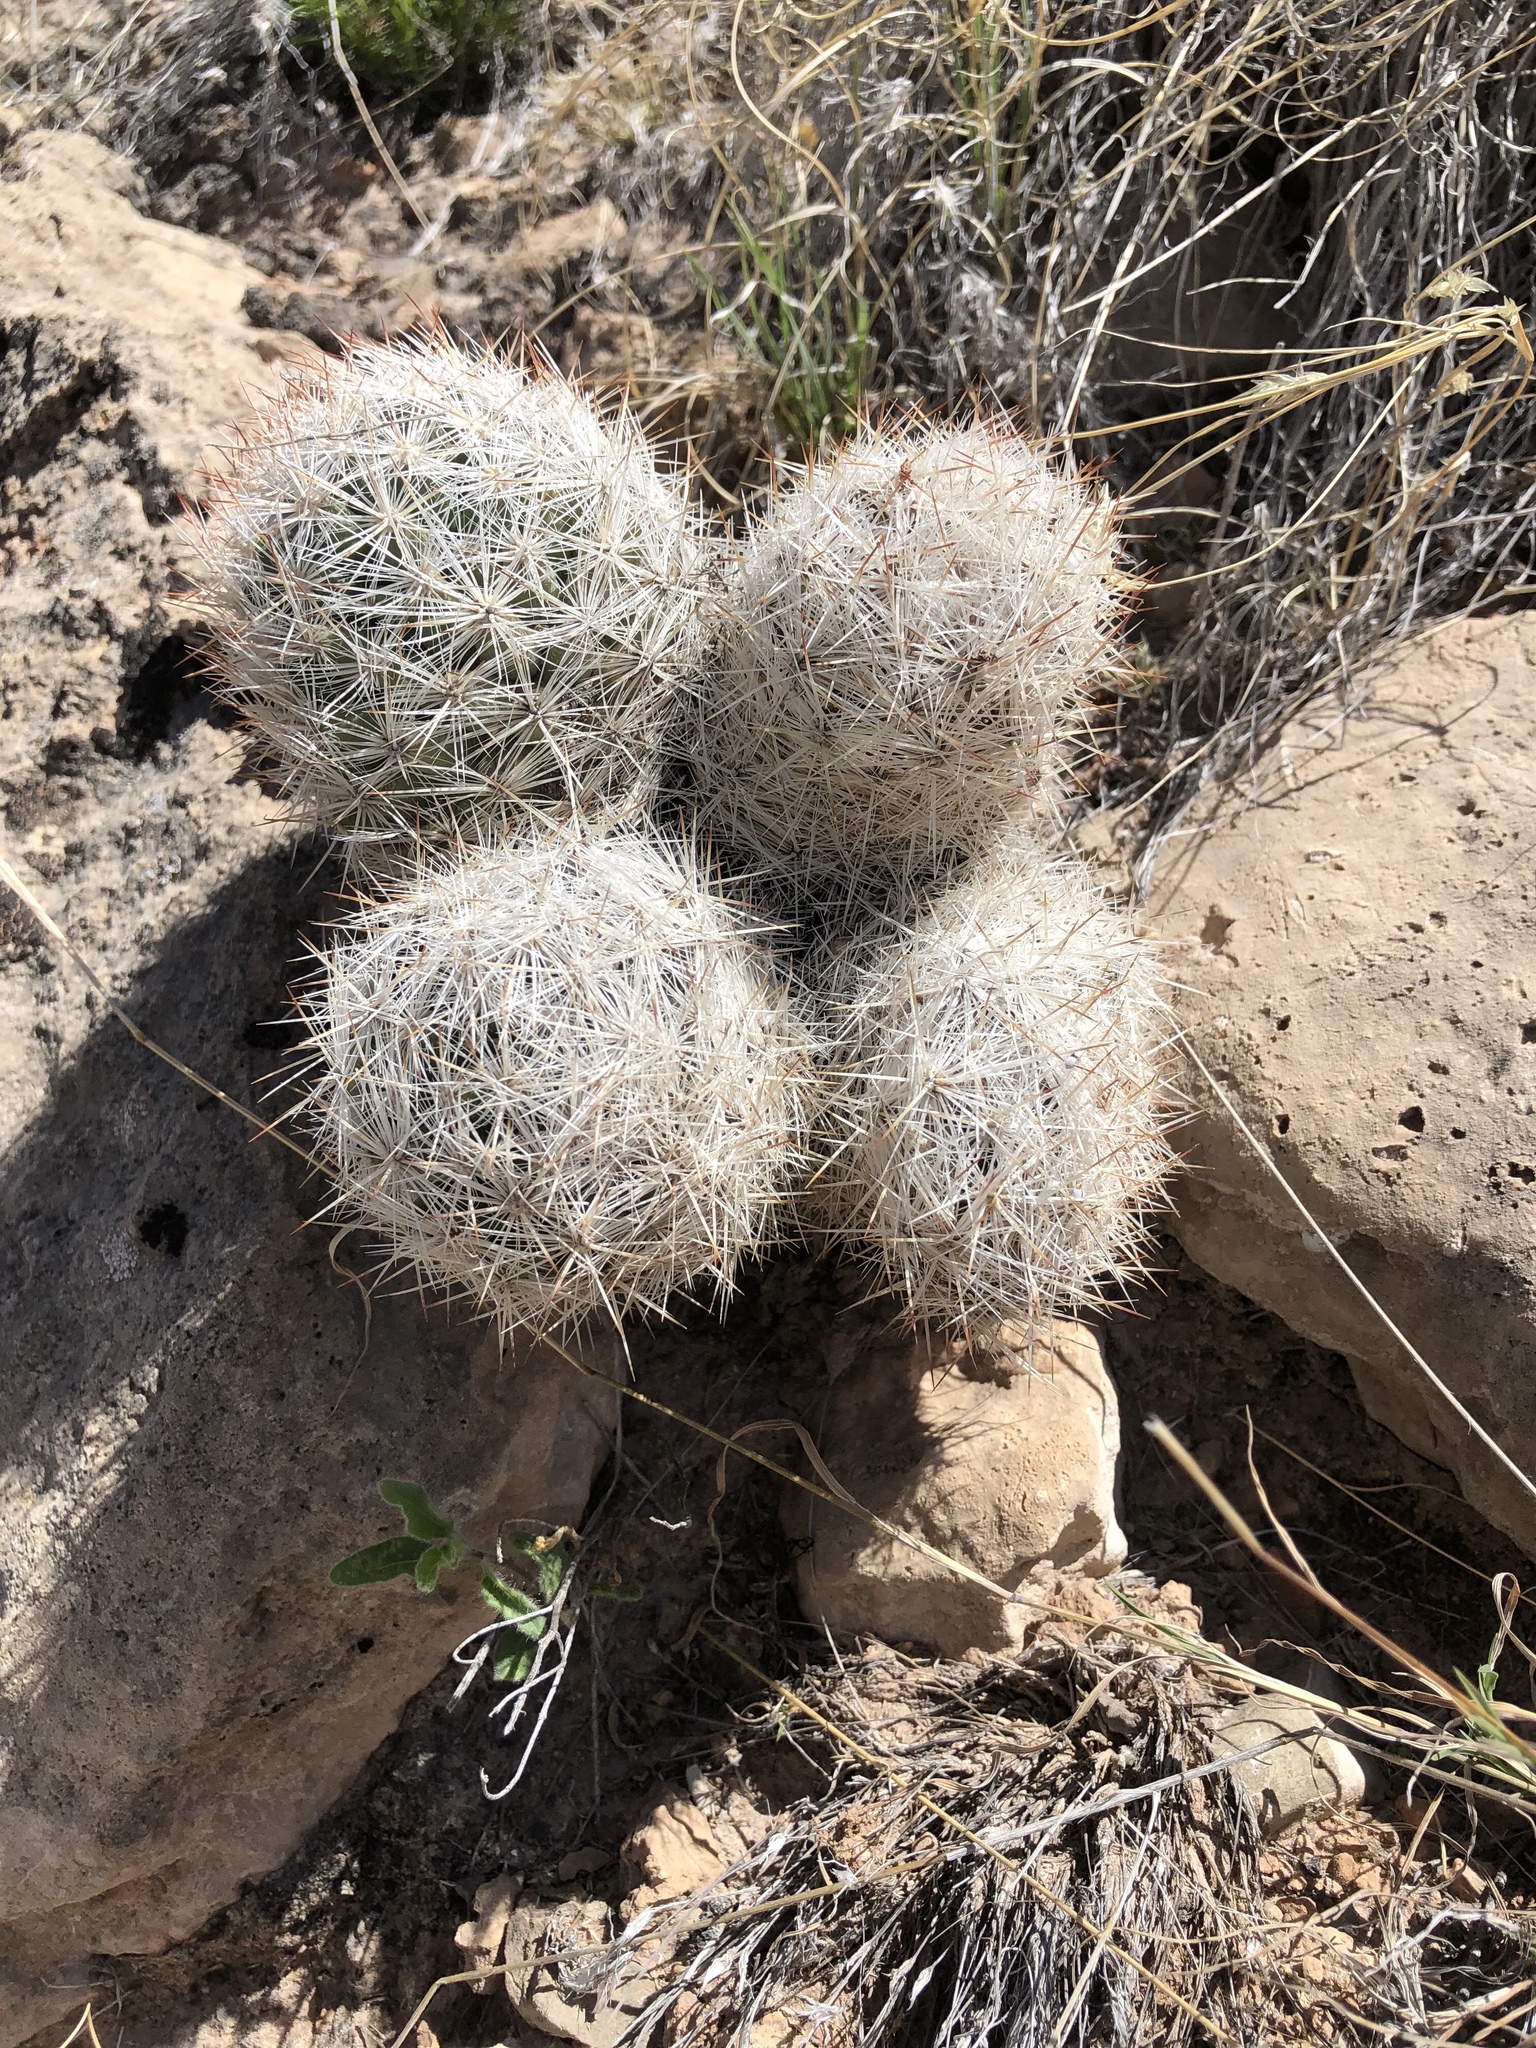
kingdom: Plantae
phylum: Tracheophyta
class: Magnoliopsida
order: Caryophyllales
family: Cactaceae
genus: Pelecyphora
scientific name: Pelecyphora vivipara
